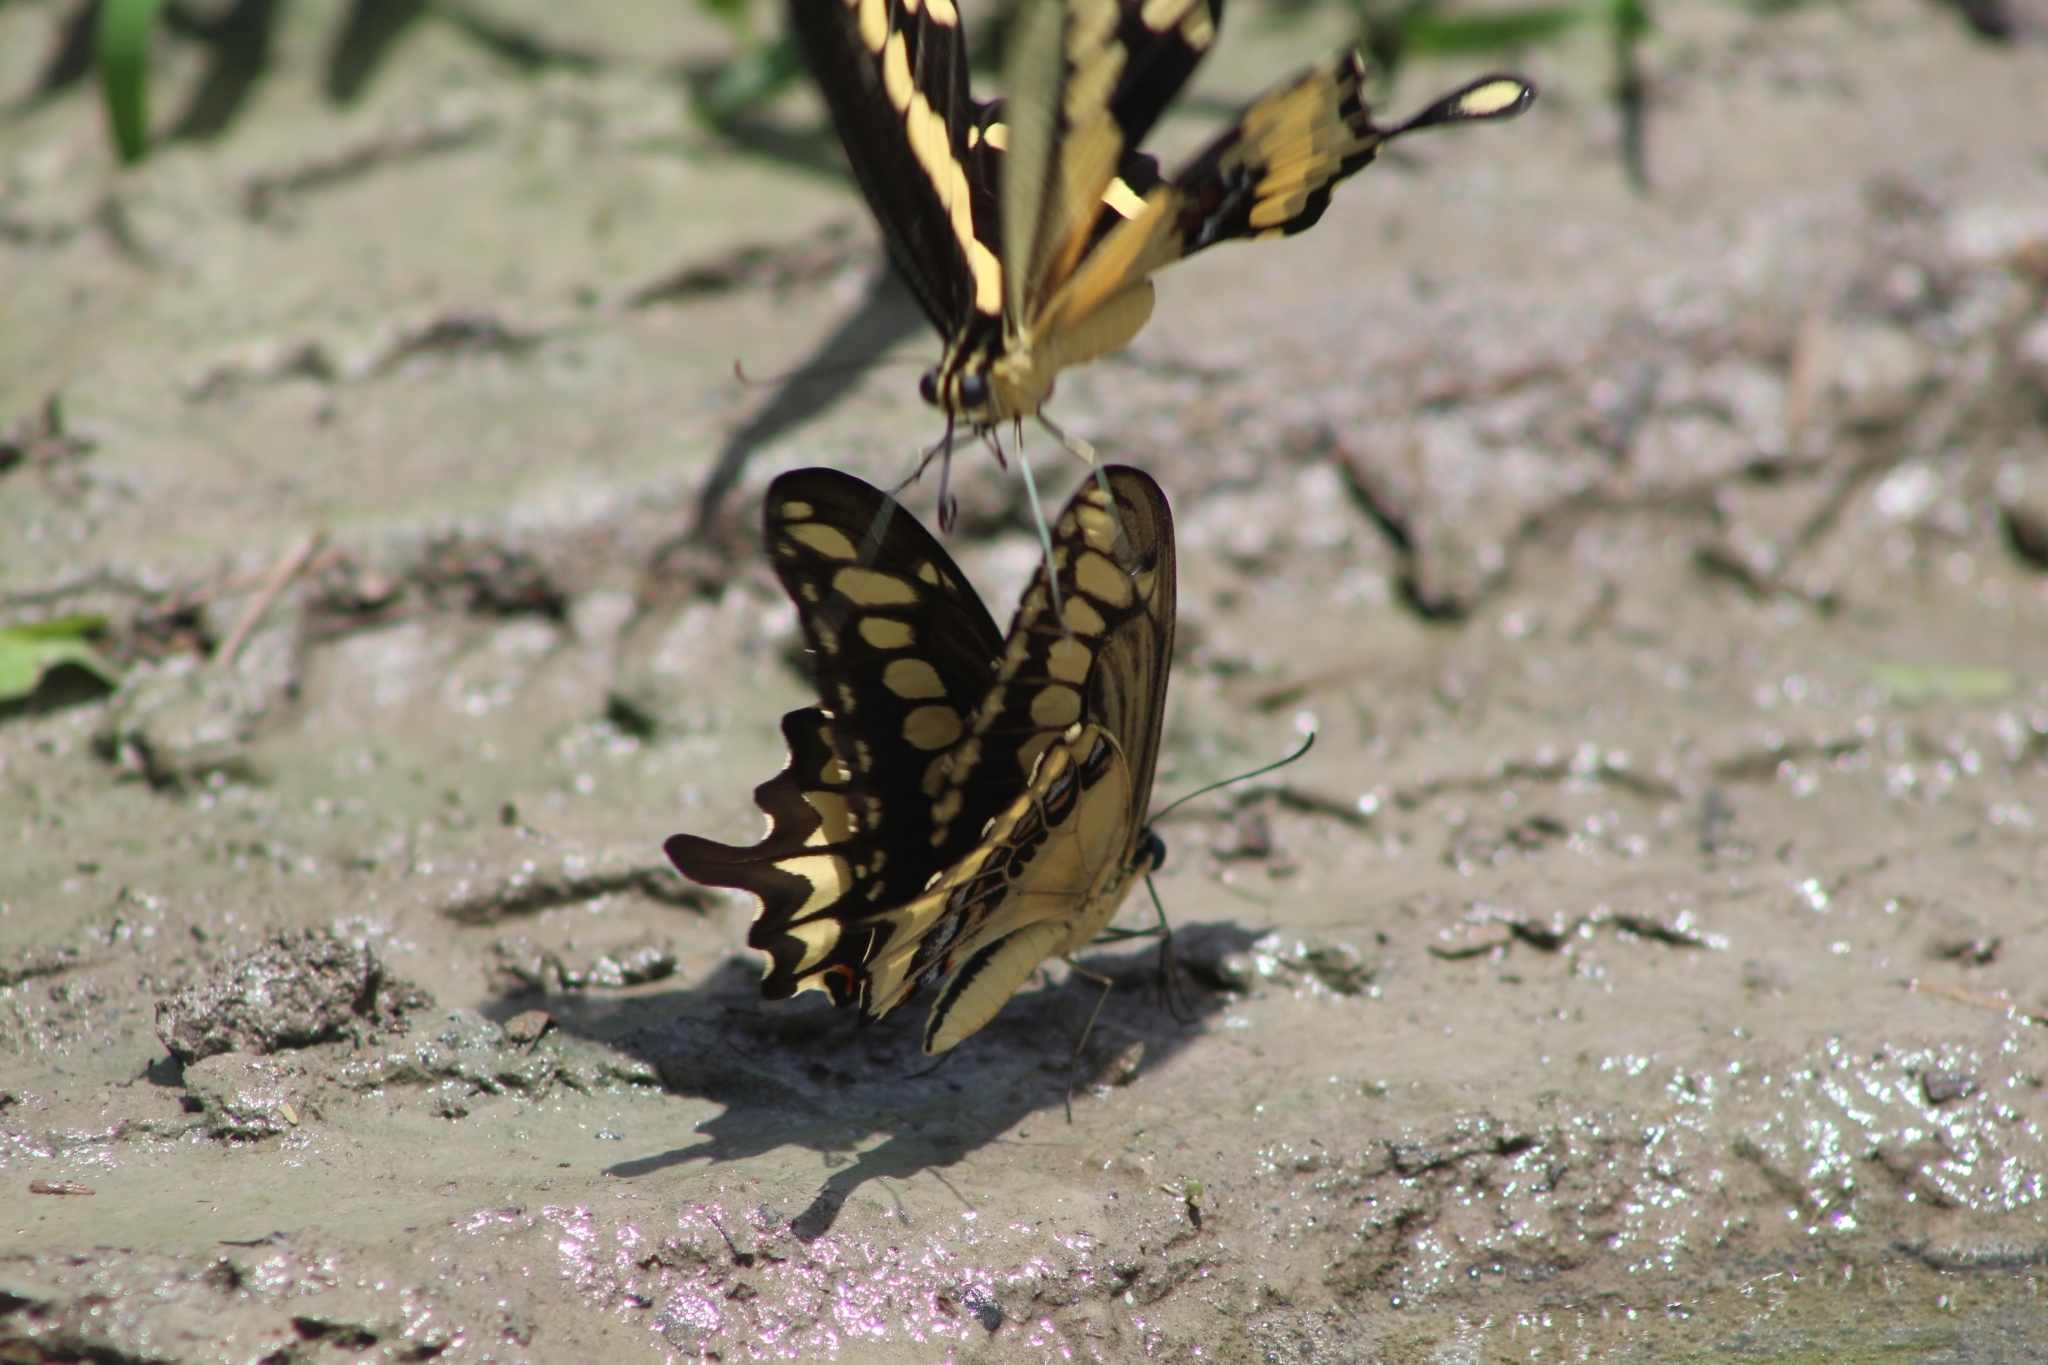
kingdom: Animalia
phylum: Arthropoda
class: Insecta
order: Lepidoptera
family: Papilionidae
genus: Papilio
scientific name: Papilio ornythion
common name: Ornythion swallowtail
